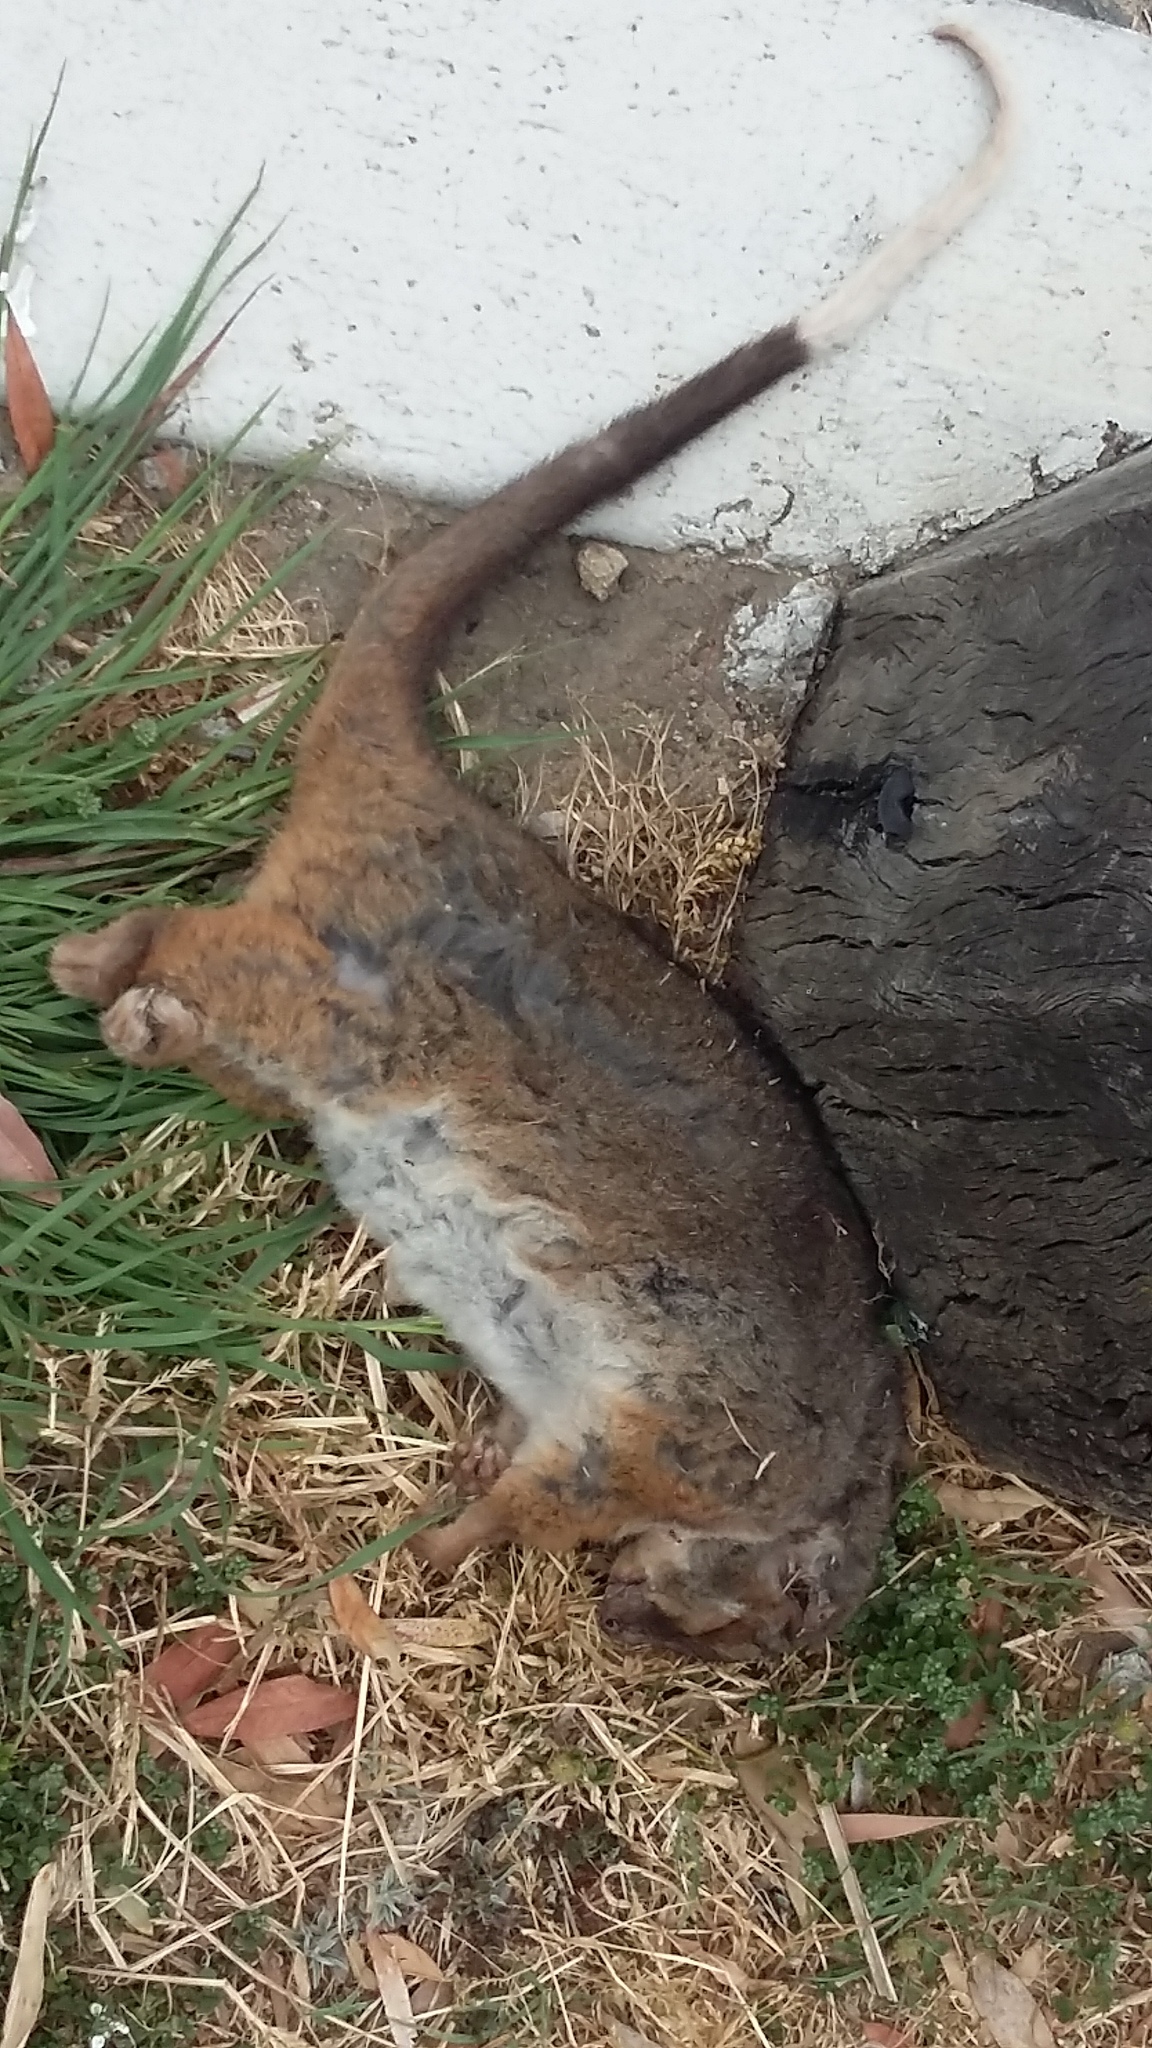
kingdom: Animalia
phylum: Chordata
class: Mammalia
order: Diprotodontia
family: Pseudocheiridae
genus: Pseudocheirus
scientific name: Pseudocheirus peregrinus
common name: Common ringtail possum
